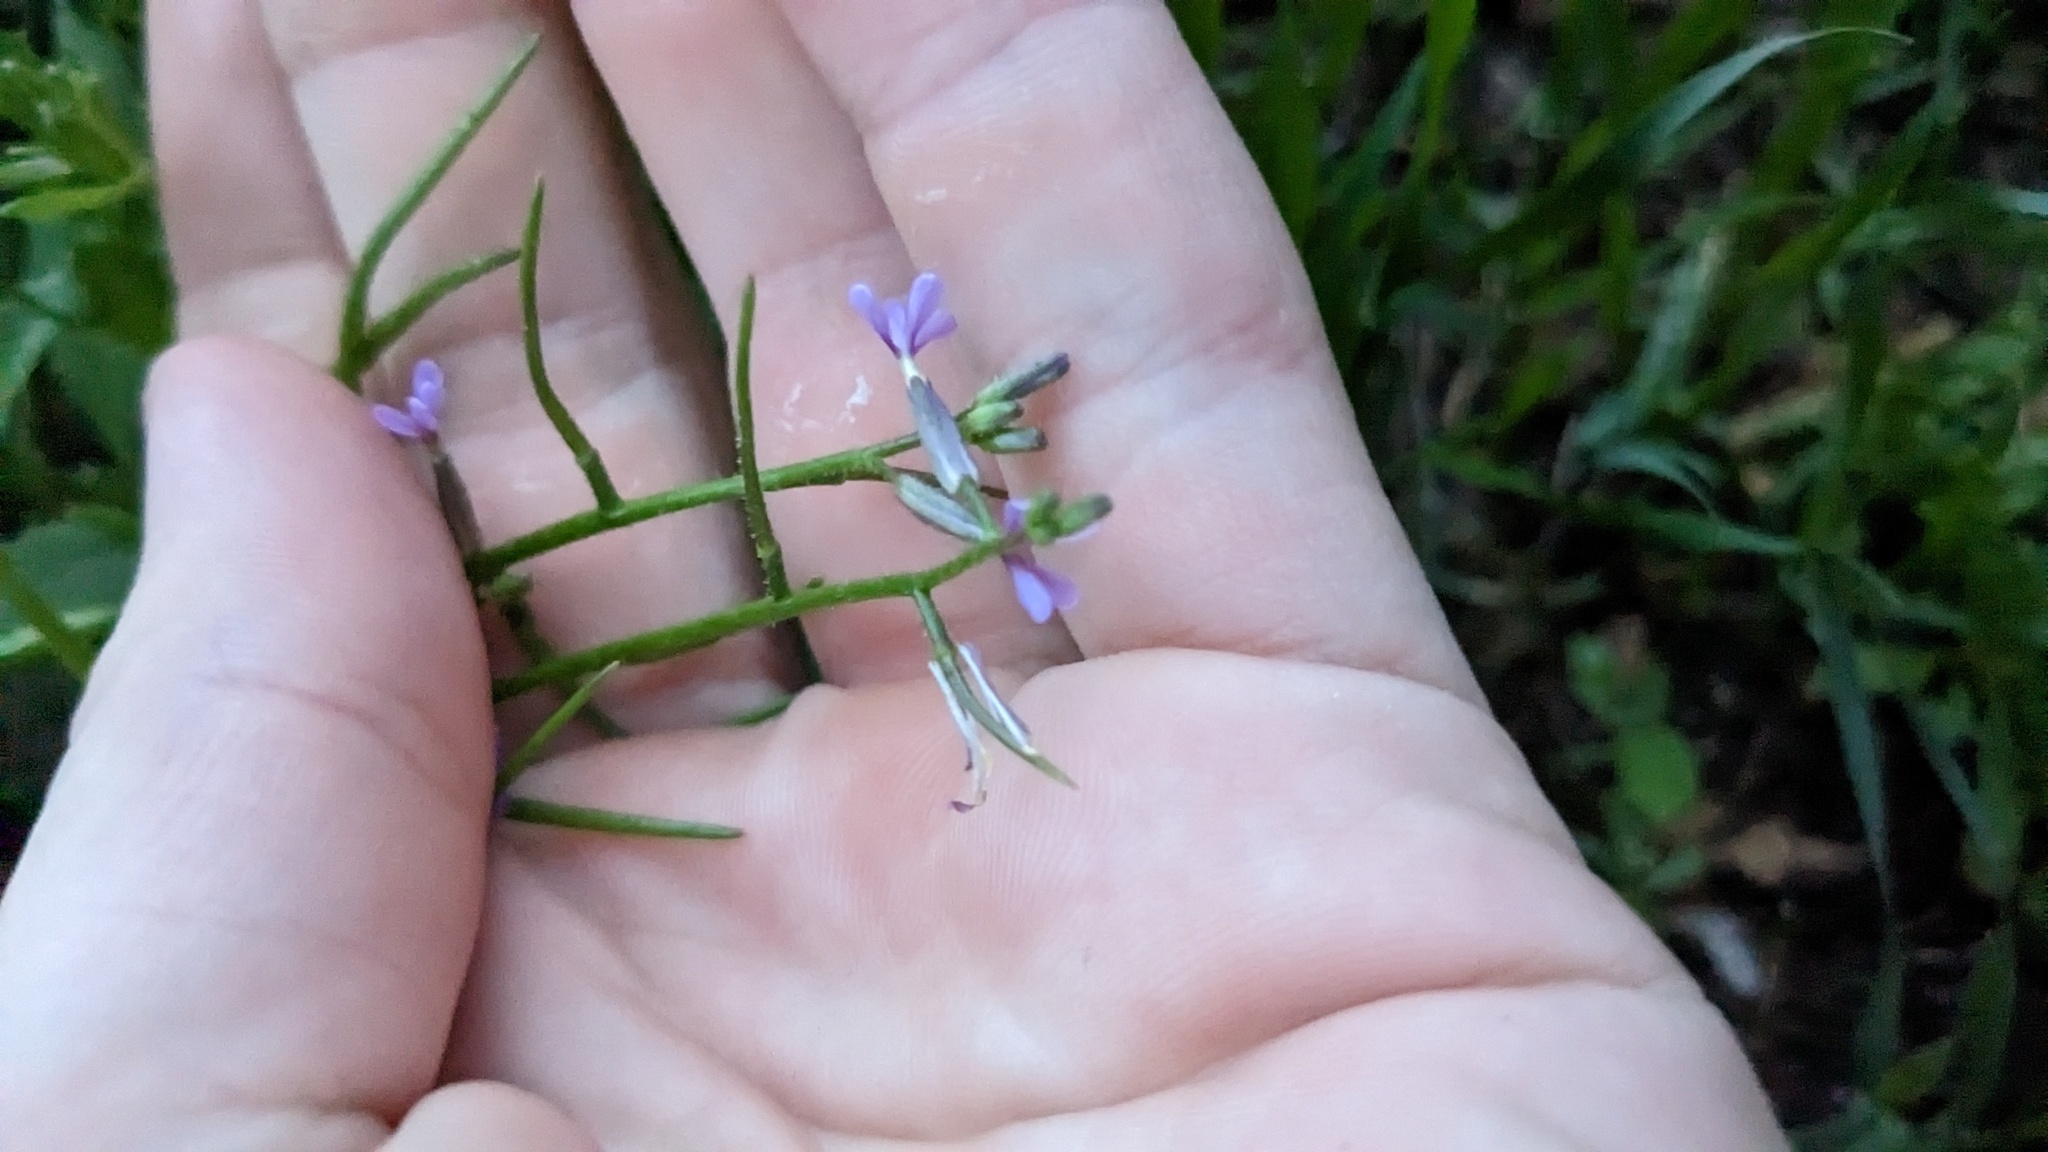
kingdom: Plantae
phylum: Tracheophyta
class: Magnoliopsida
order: Brassicales
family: Brassicaceae
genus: Chorispora
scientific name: Chorispora tenella
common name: Crossflower
